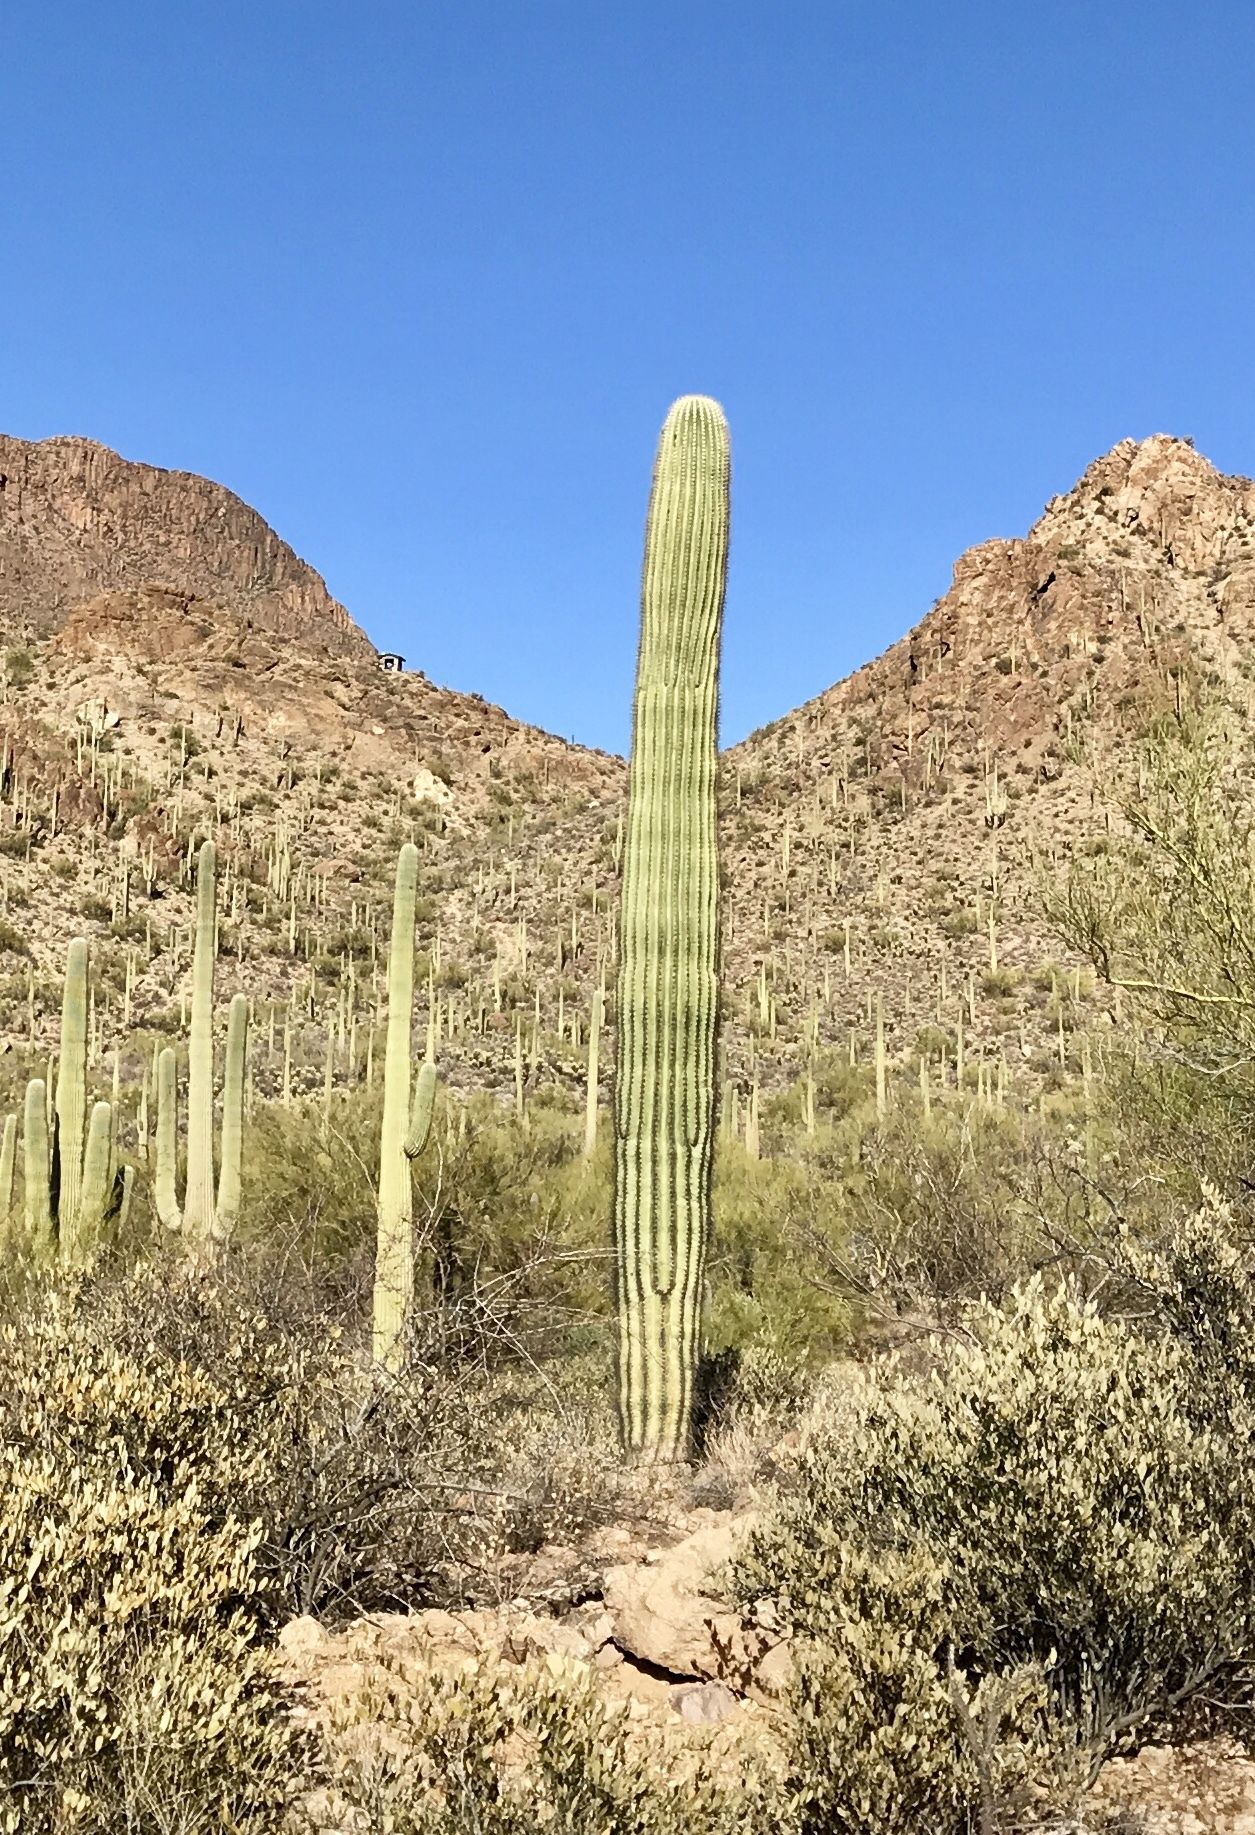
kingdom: Plantae
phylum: Tracheophyta
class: Magnoliopsida
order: Caryophyllales
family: Cactaceae
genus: Carnegiea
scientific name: Carnegiea gigantea
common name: Saguaro
